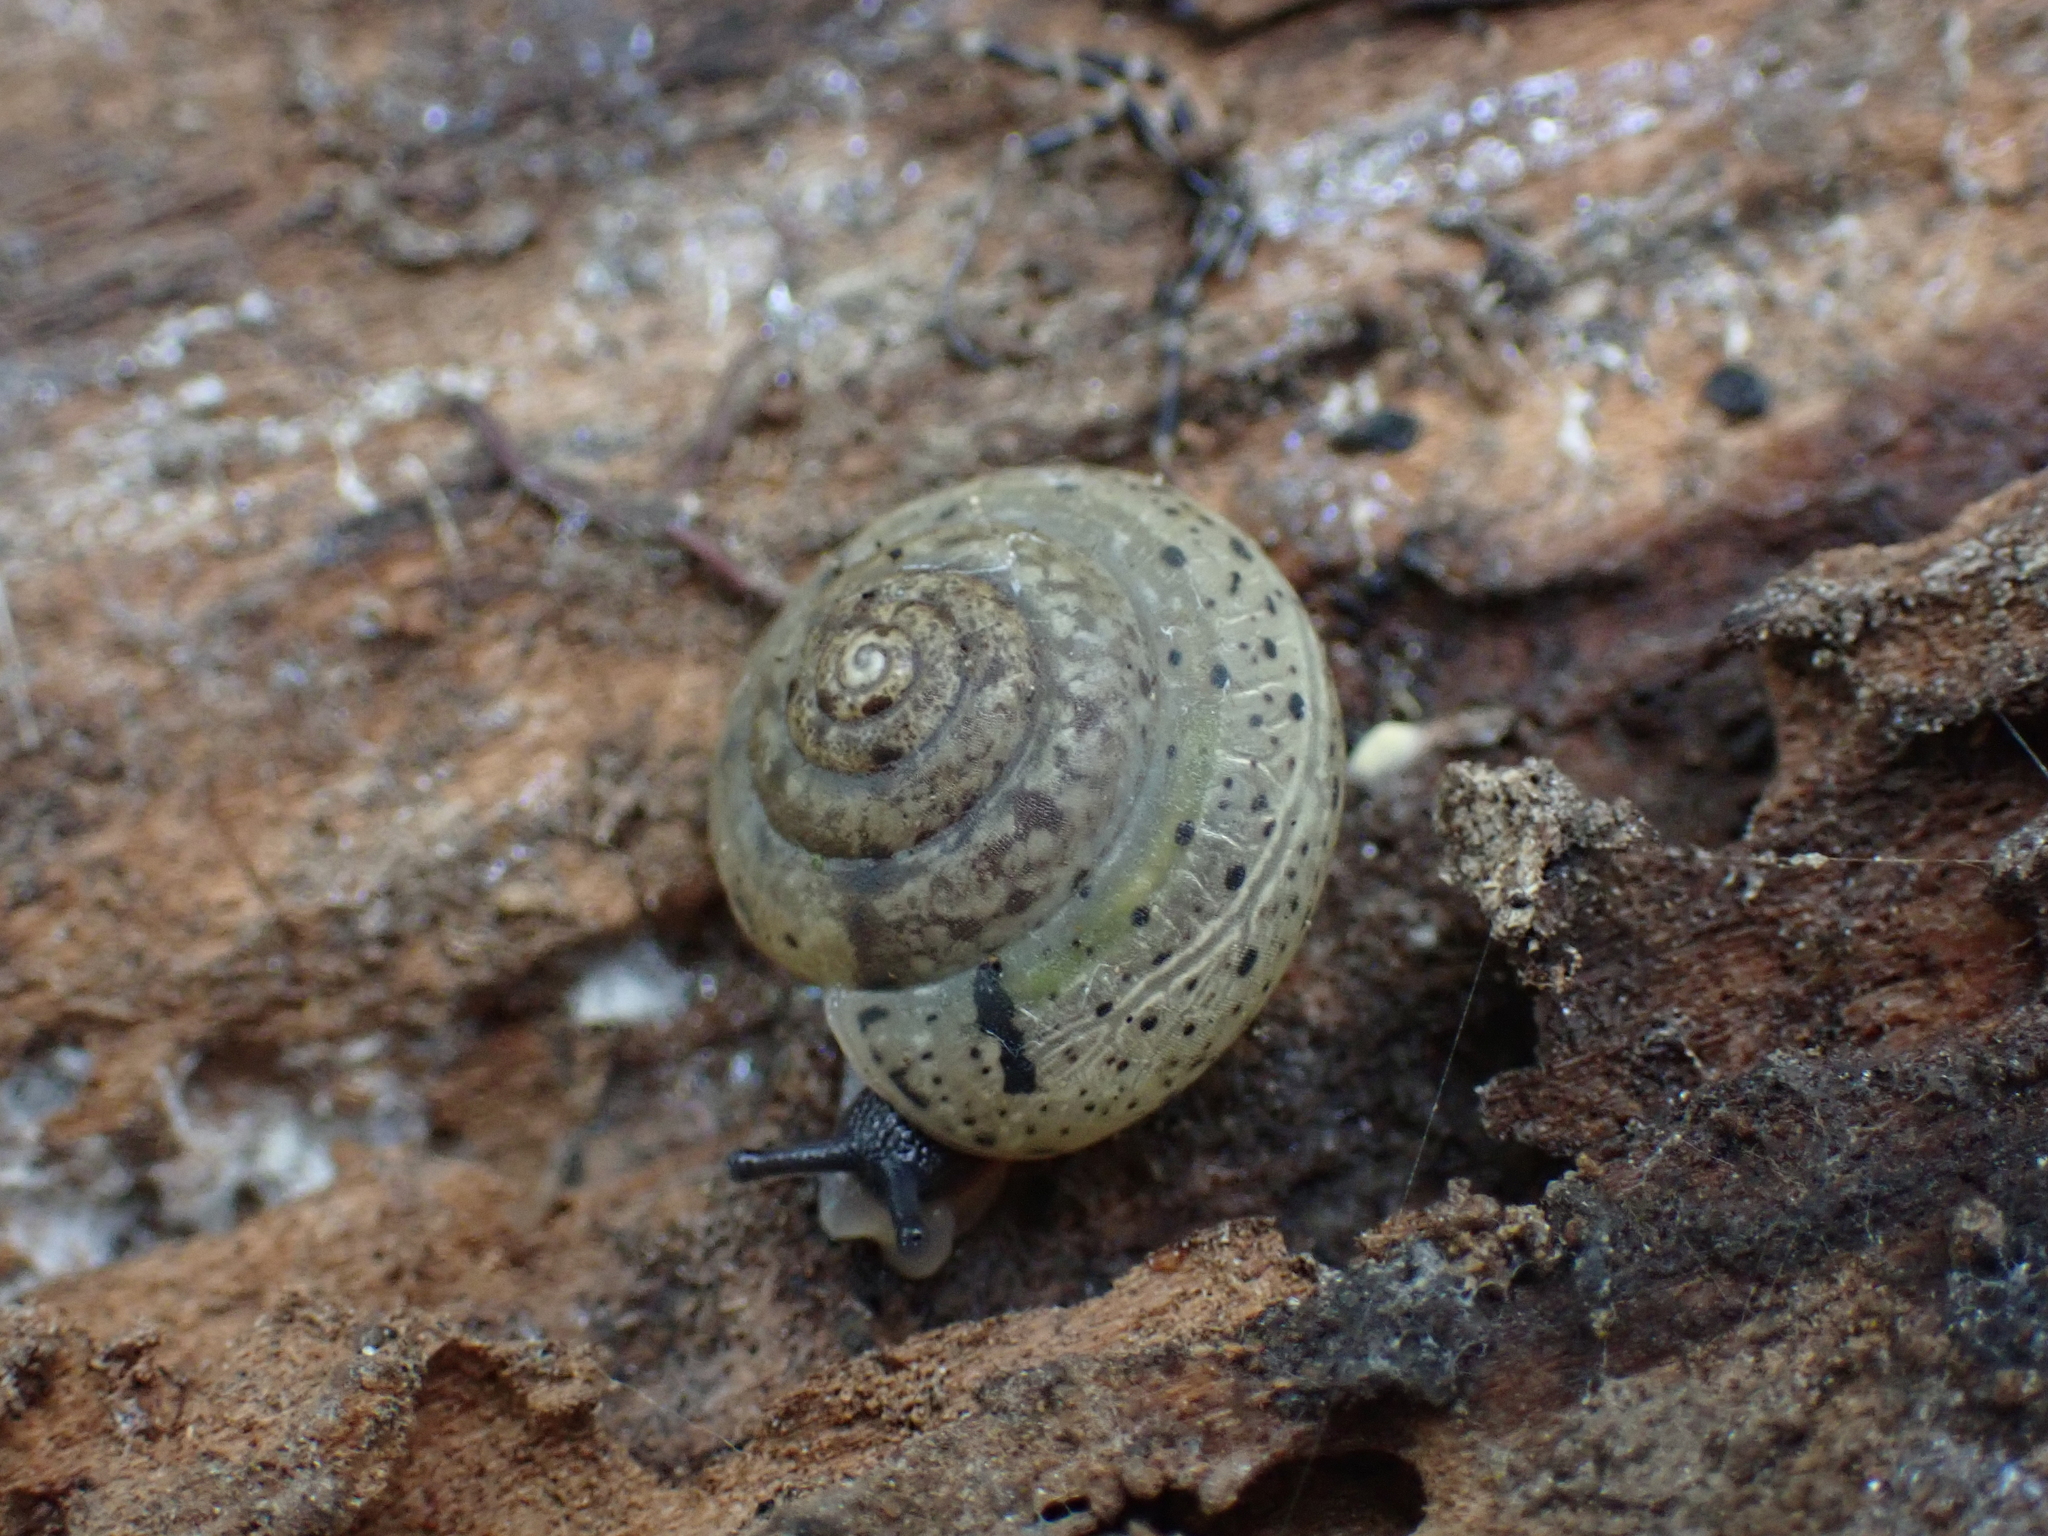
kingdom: Animalia
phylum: Mollusca
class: Gastropoda
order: Stylommatophora
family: Hygromiidae
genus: Monachoides
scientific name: Monachoides incarnatus
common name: Incarnate snail
